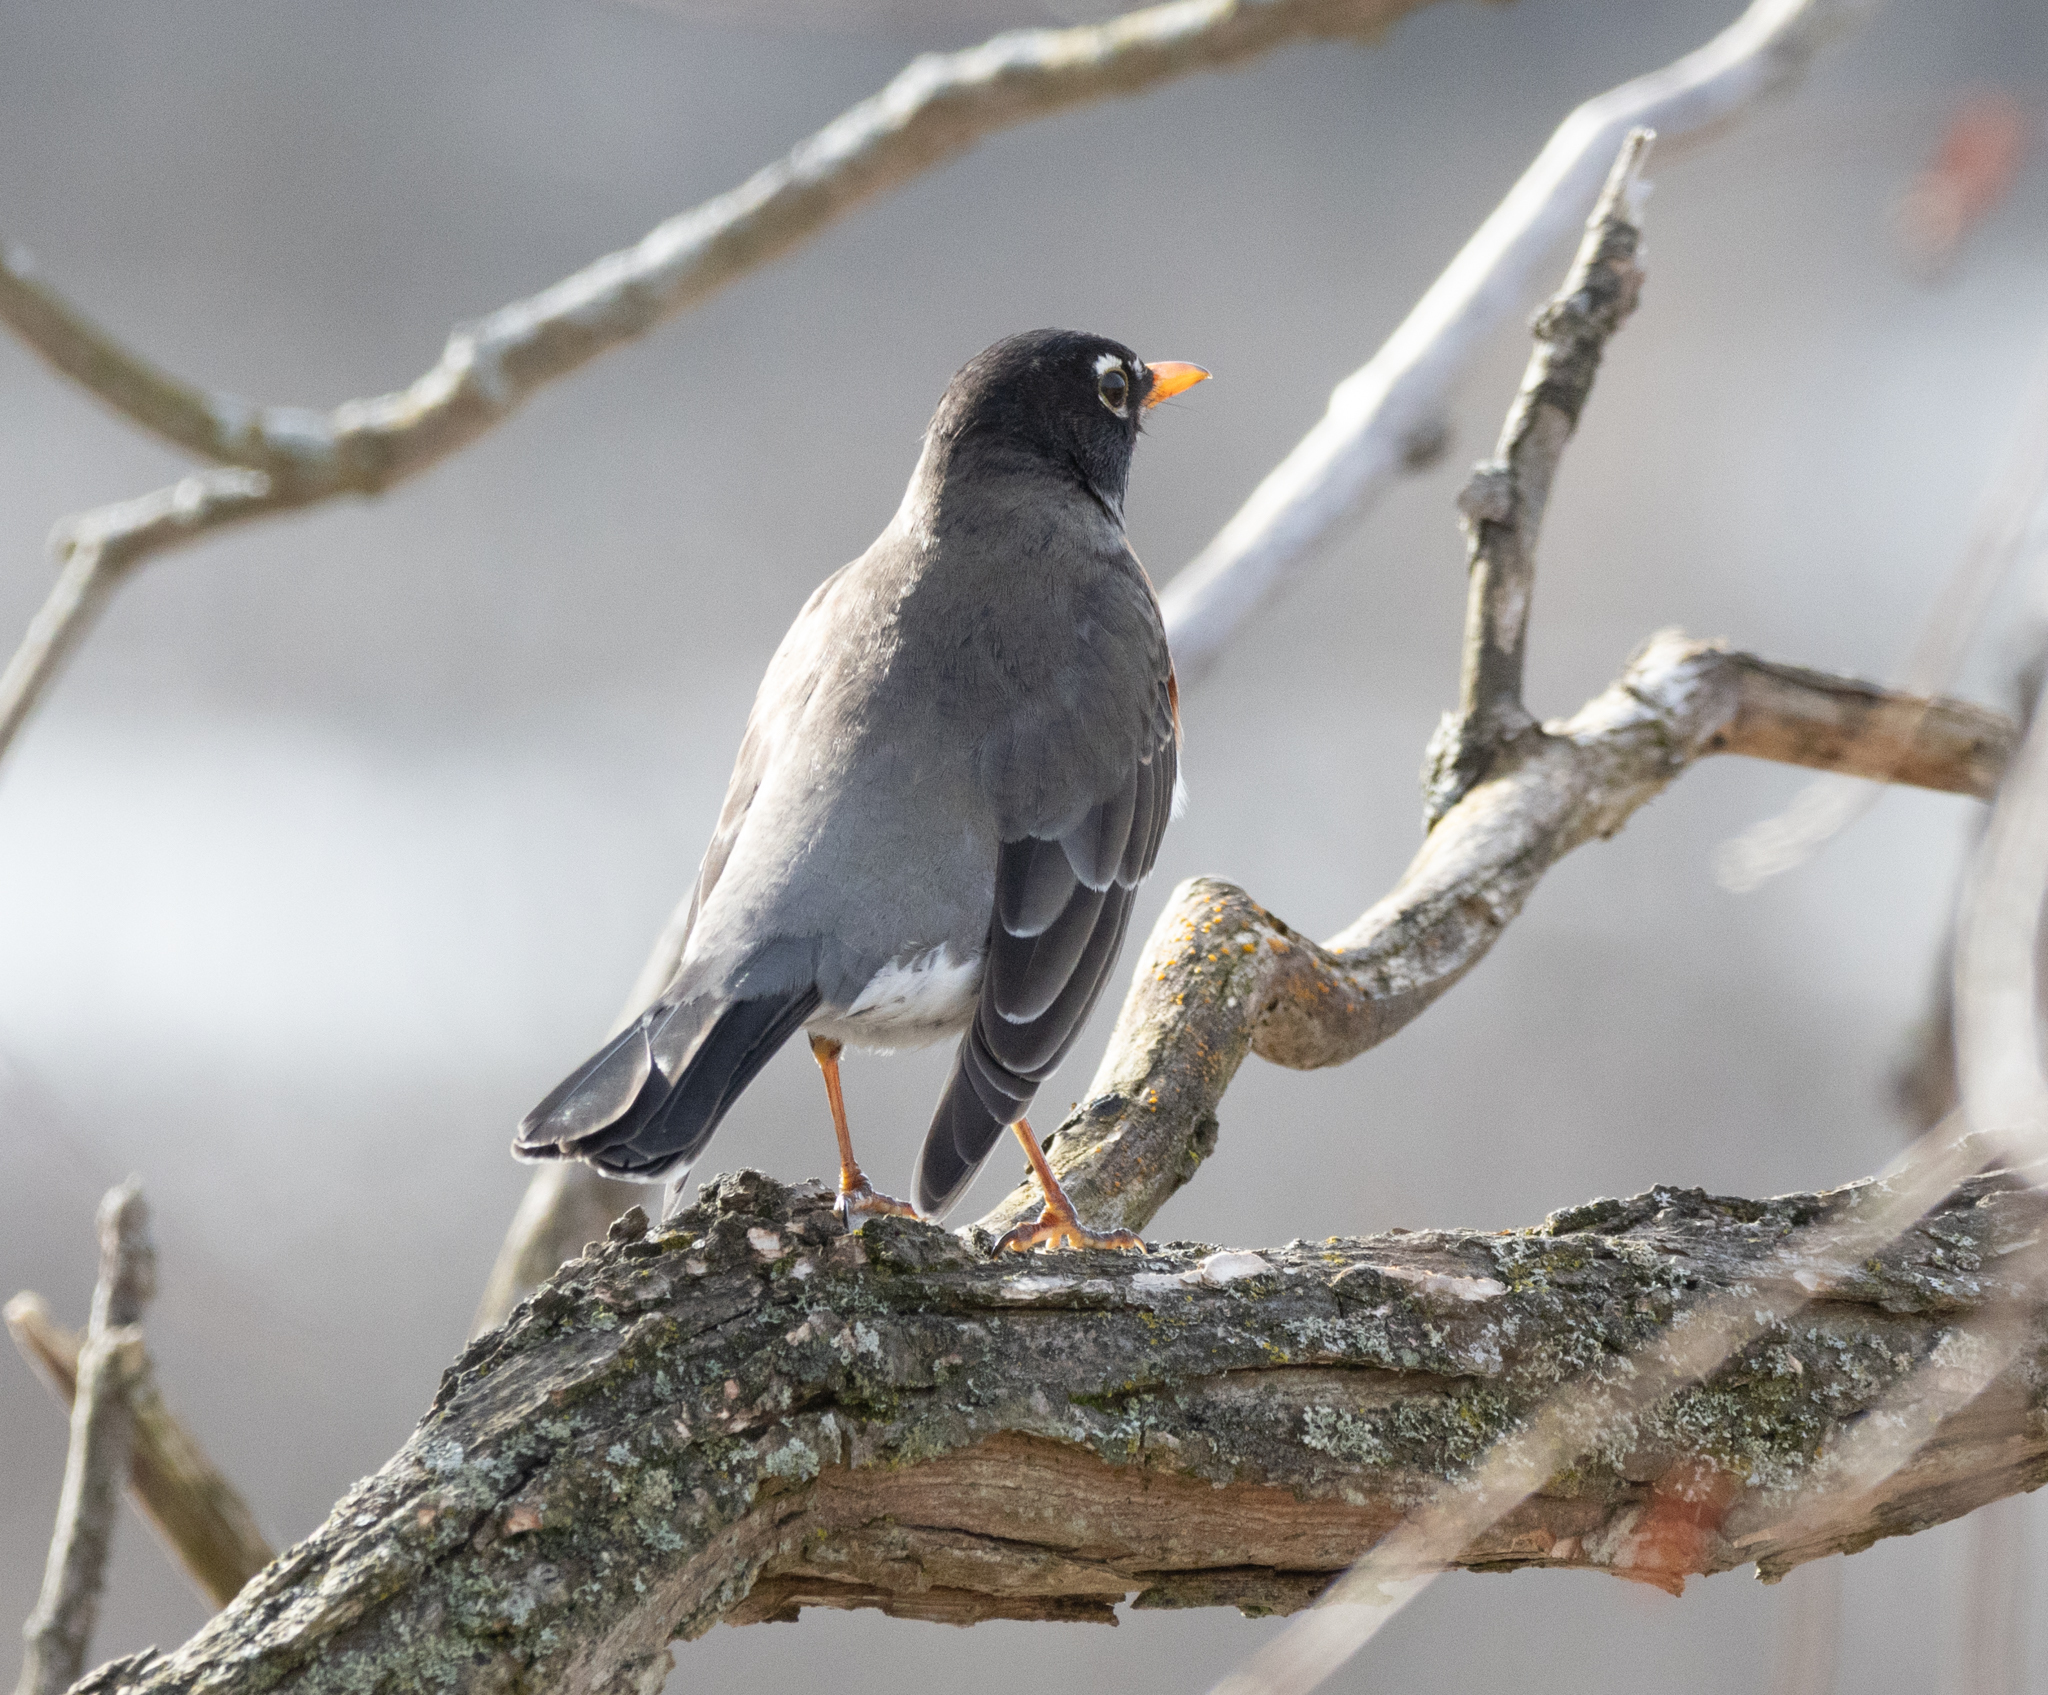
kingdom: Animalia
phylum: Chordata
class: Aves
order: Passeriformes
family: Turdidae
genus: Turdus
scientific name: Turdus migratorius
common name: American robin
